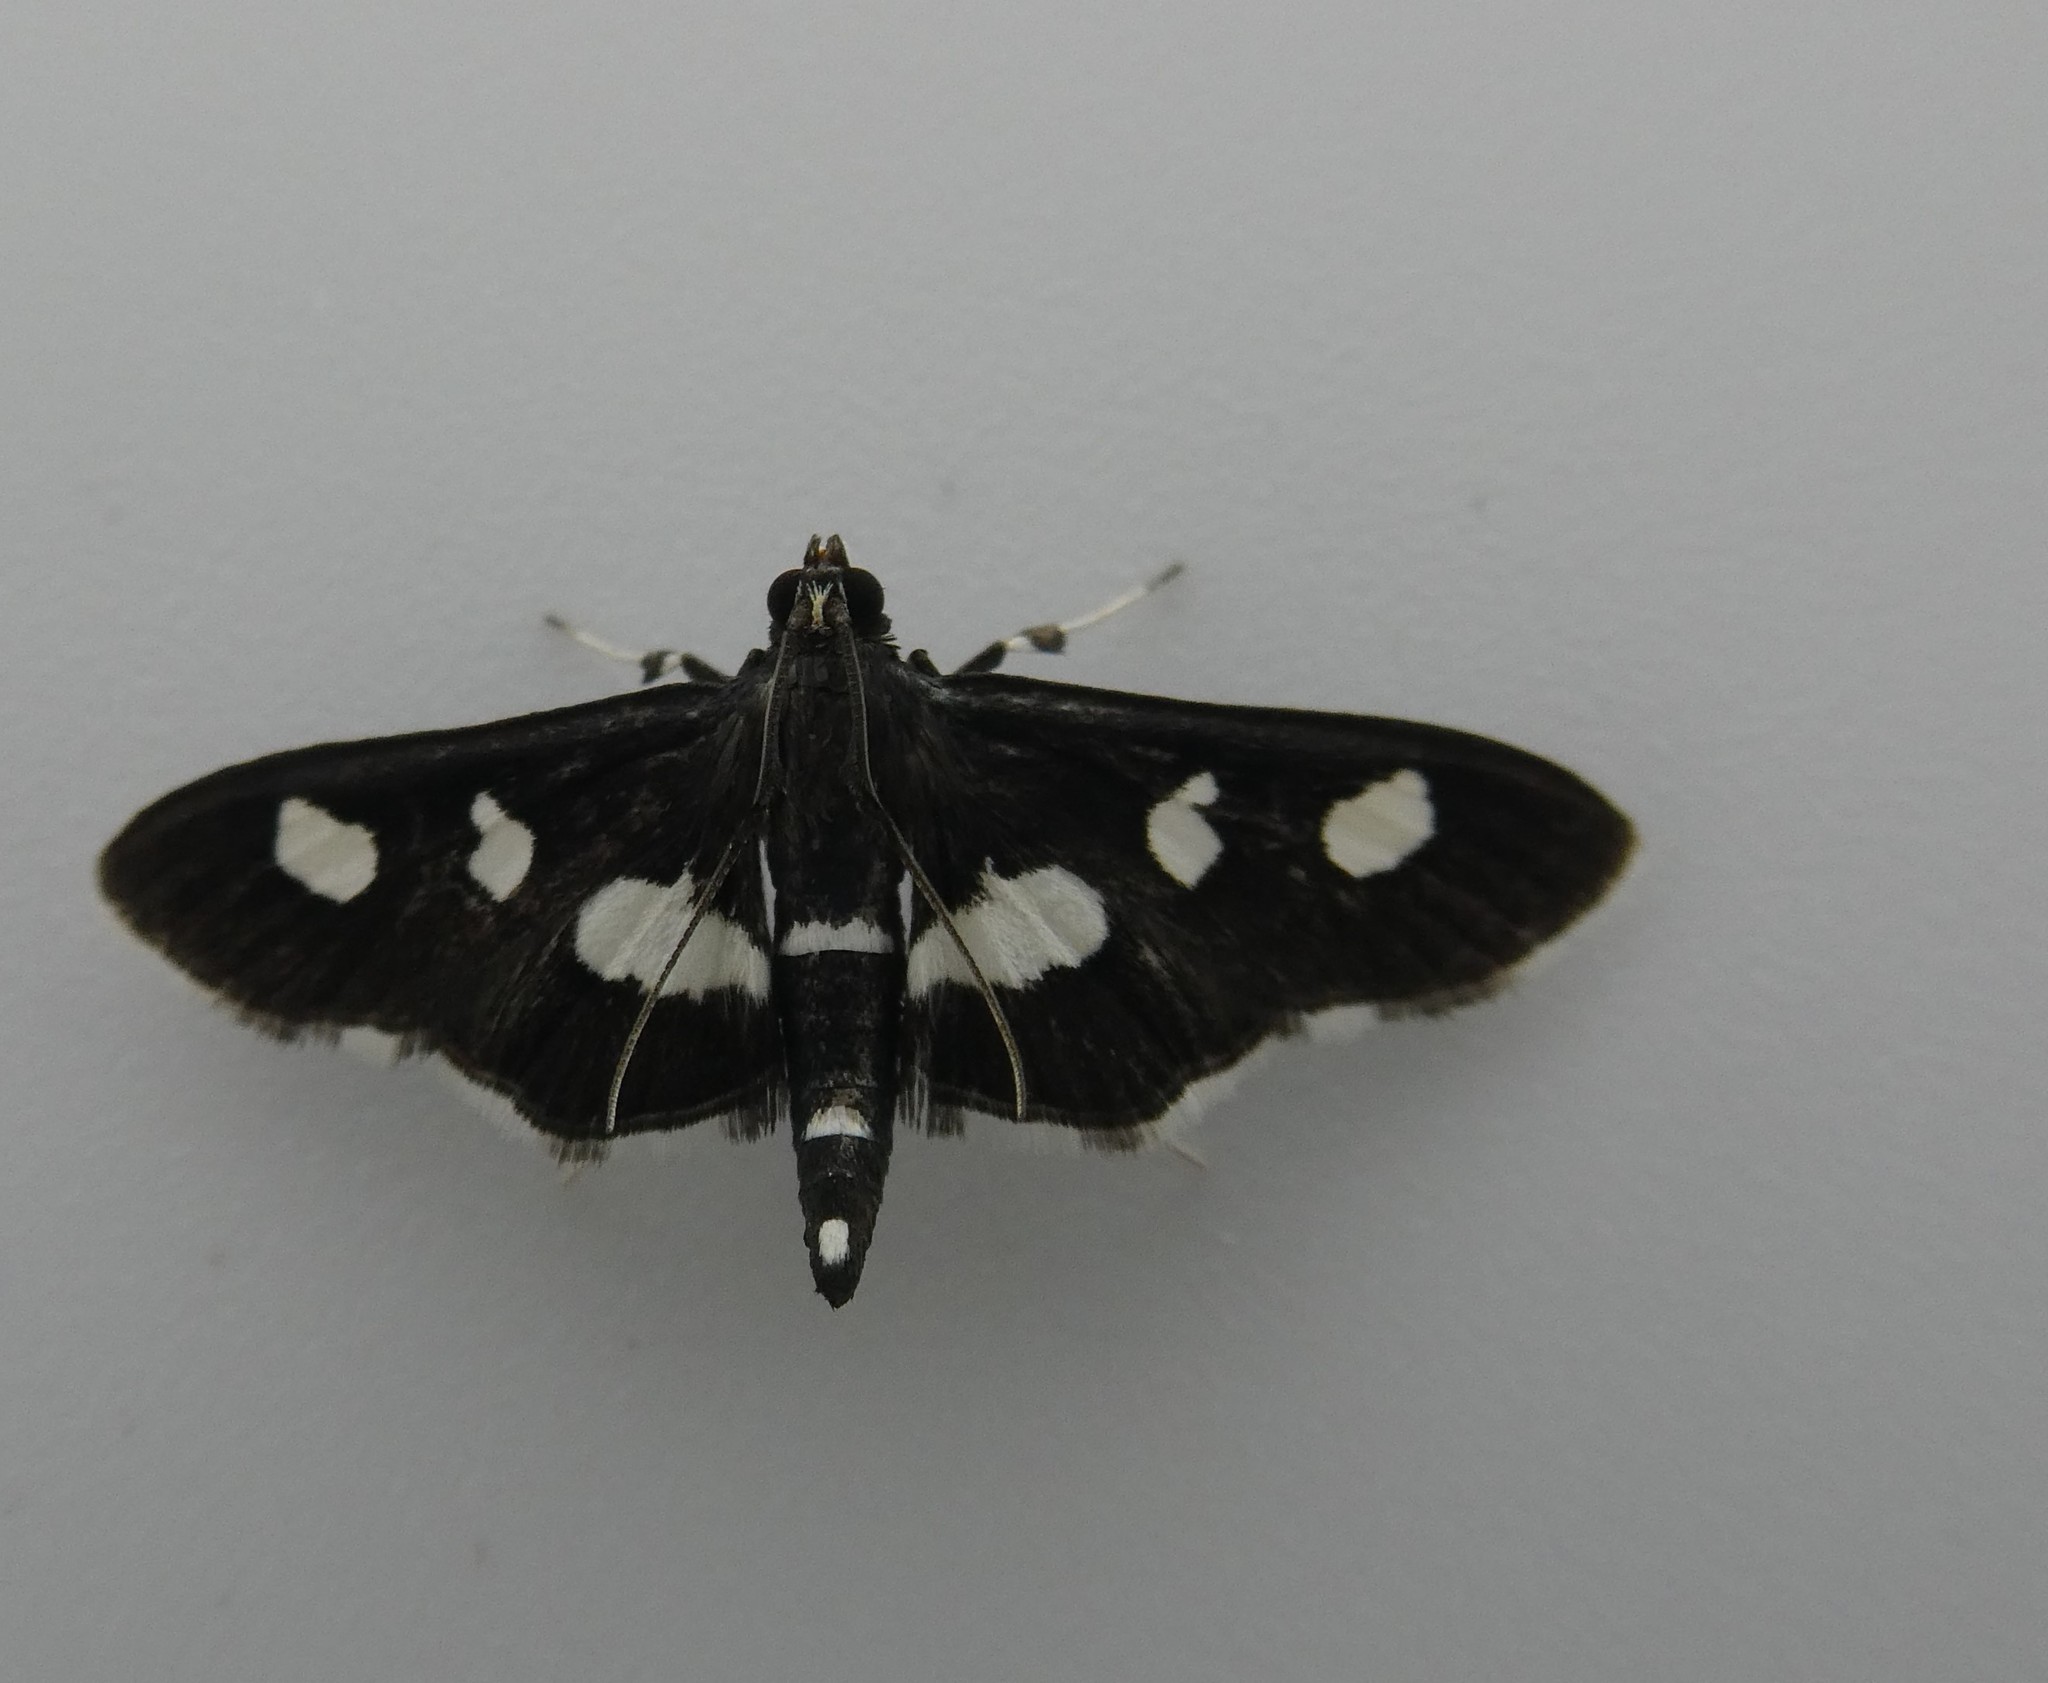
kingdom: Animalia
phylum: Arthropoda
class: Insecta
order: Lepidoptera
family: Crambidae
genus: Desmia
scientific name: Desmia
